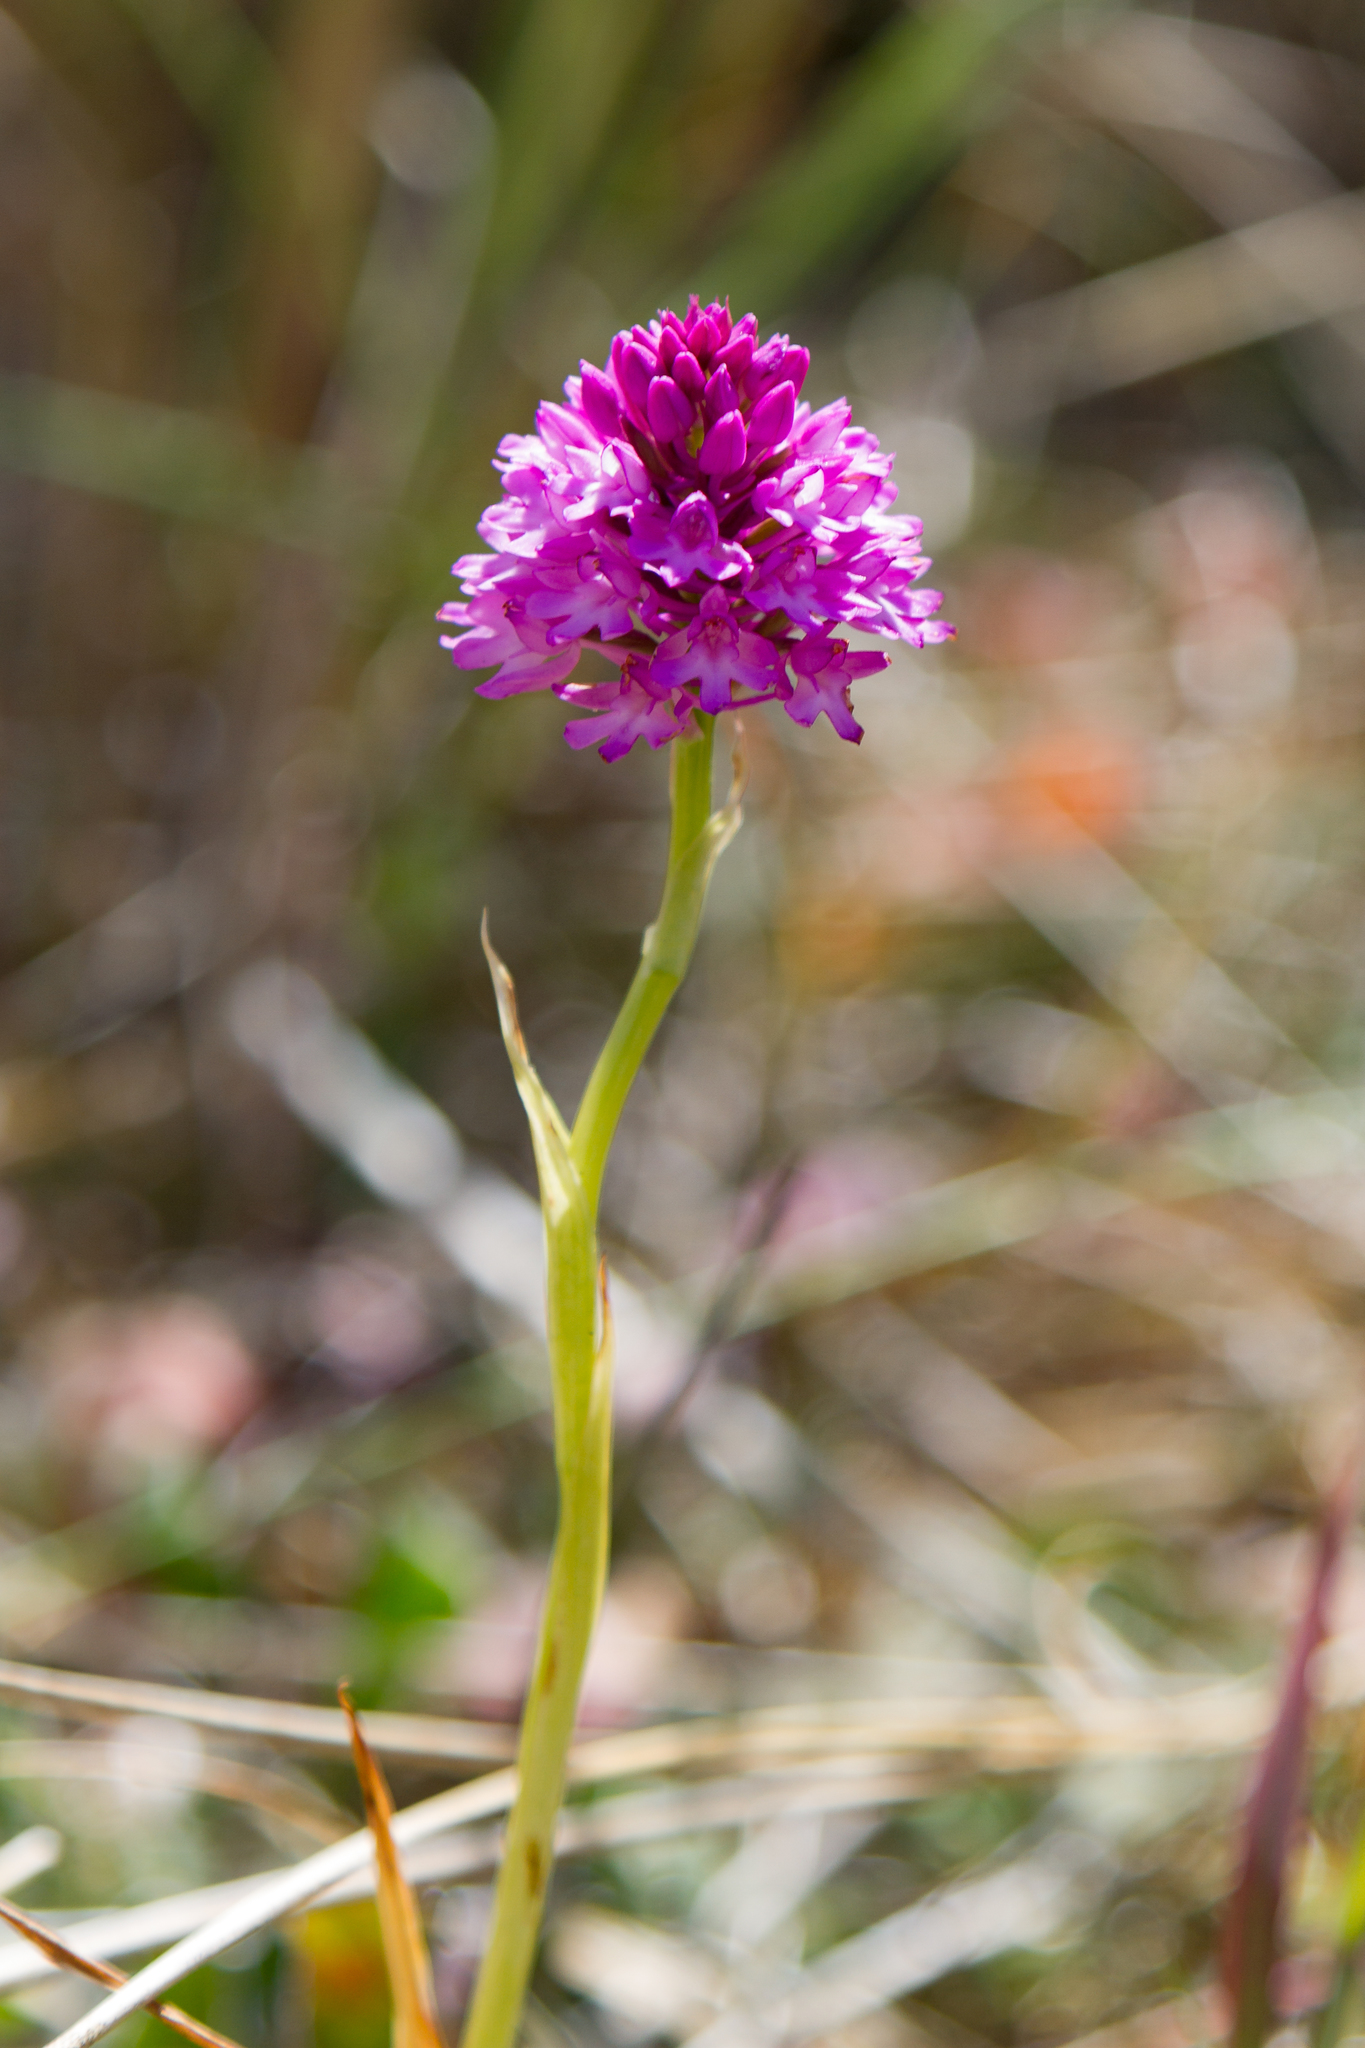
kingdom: Plantae
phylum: Tracheophyta
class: Liliopsida
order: Asparagales
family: Orchidaceae
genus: Anacamptis
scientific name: Anacamptis pyramidalis
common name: Pyramidal orchid
